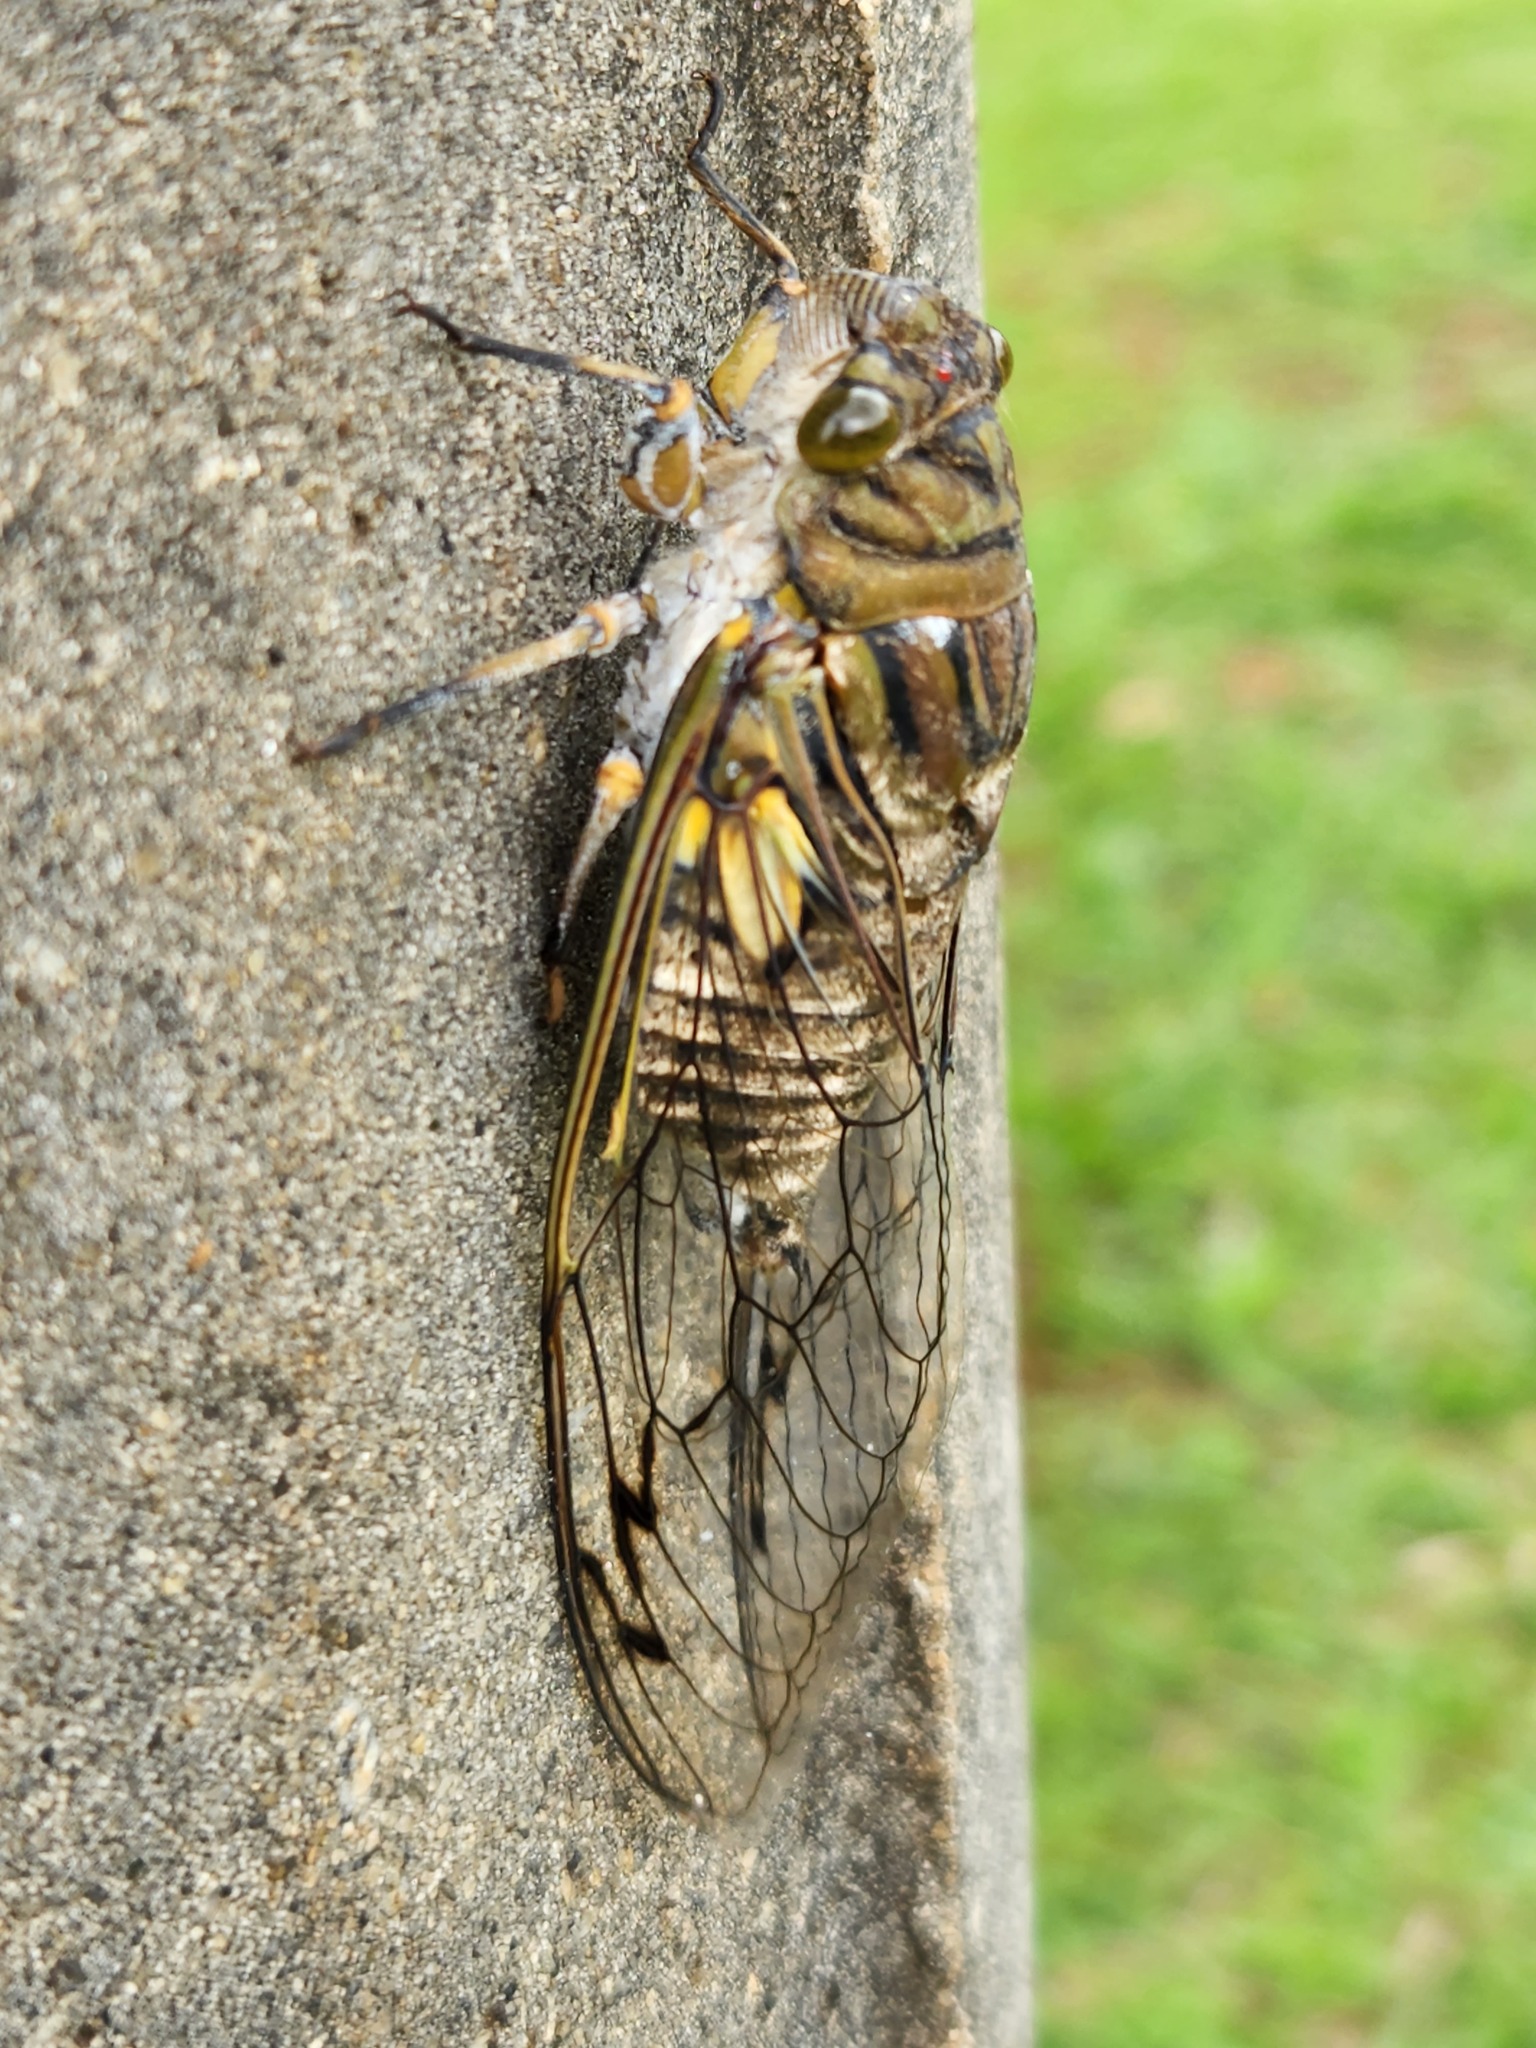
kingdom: Animalia
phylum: Arthropoda
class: Insecta
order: Hemiptera
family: Cicadidae
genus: Quesada
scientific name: Quesada gigas
